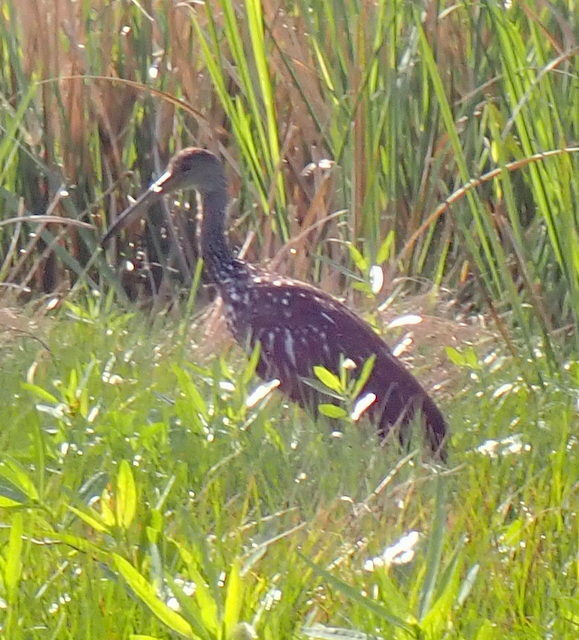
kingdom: Animalia
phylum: Chordata
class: Aves
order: Gruiformes
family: Aramidae
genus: Aramus
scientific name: Aramus guarauna
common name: Limpkin
